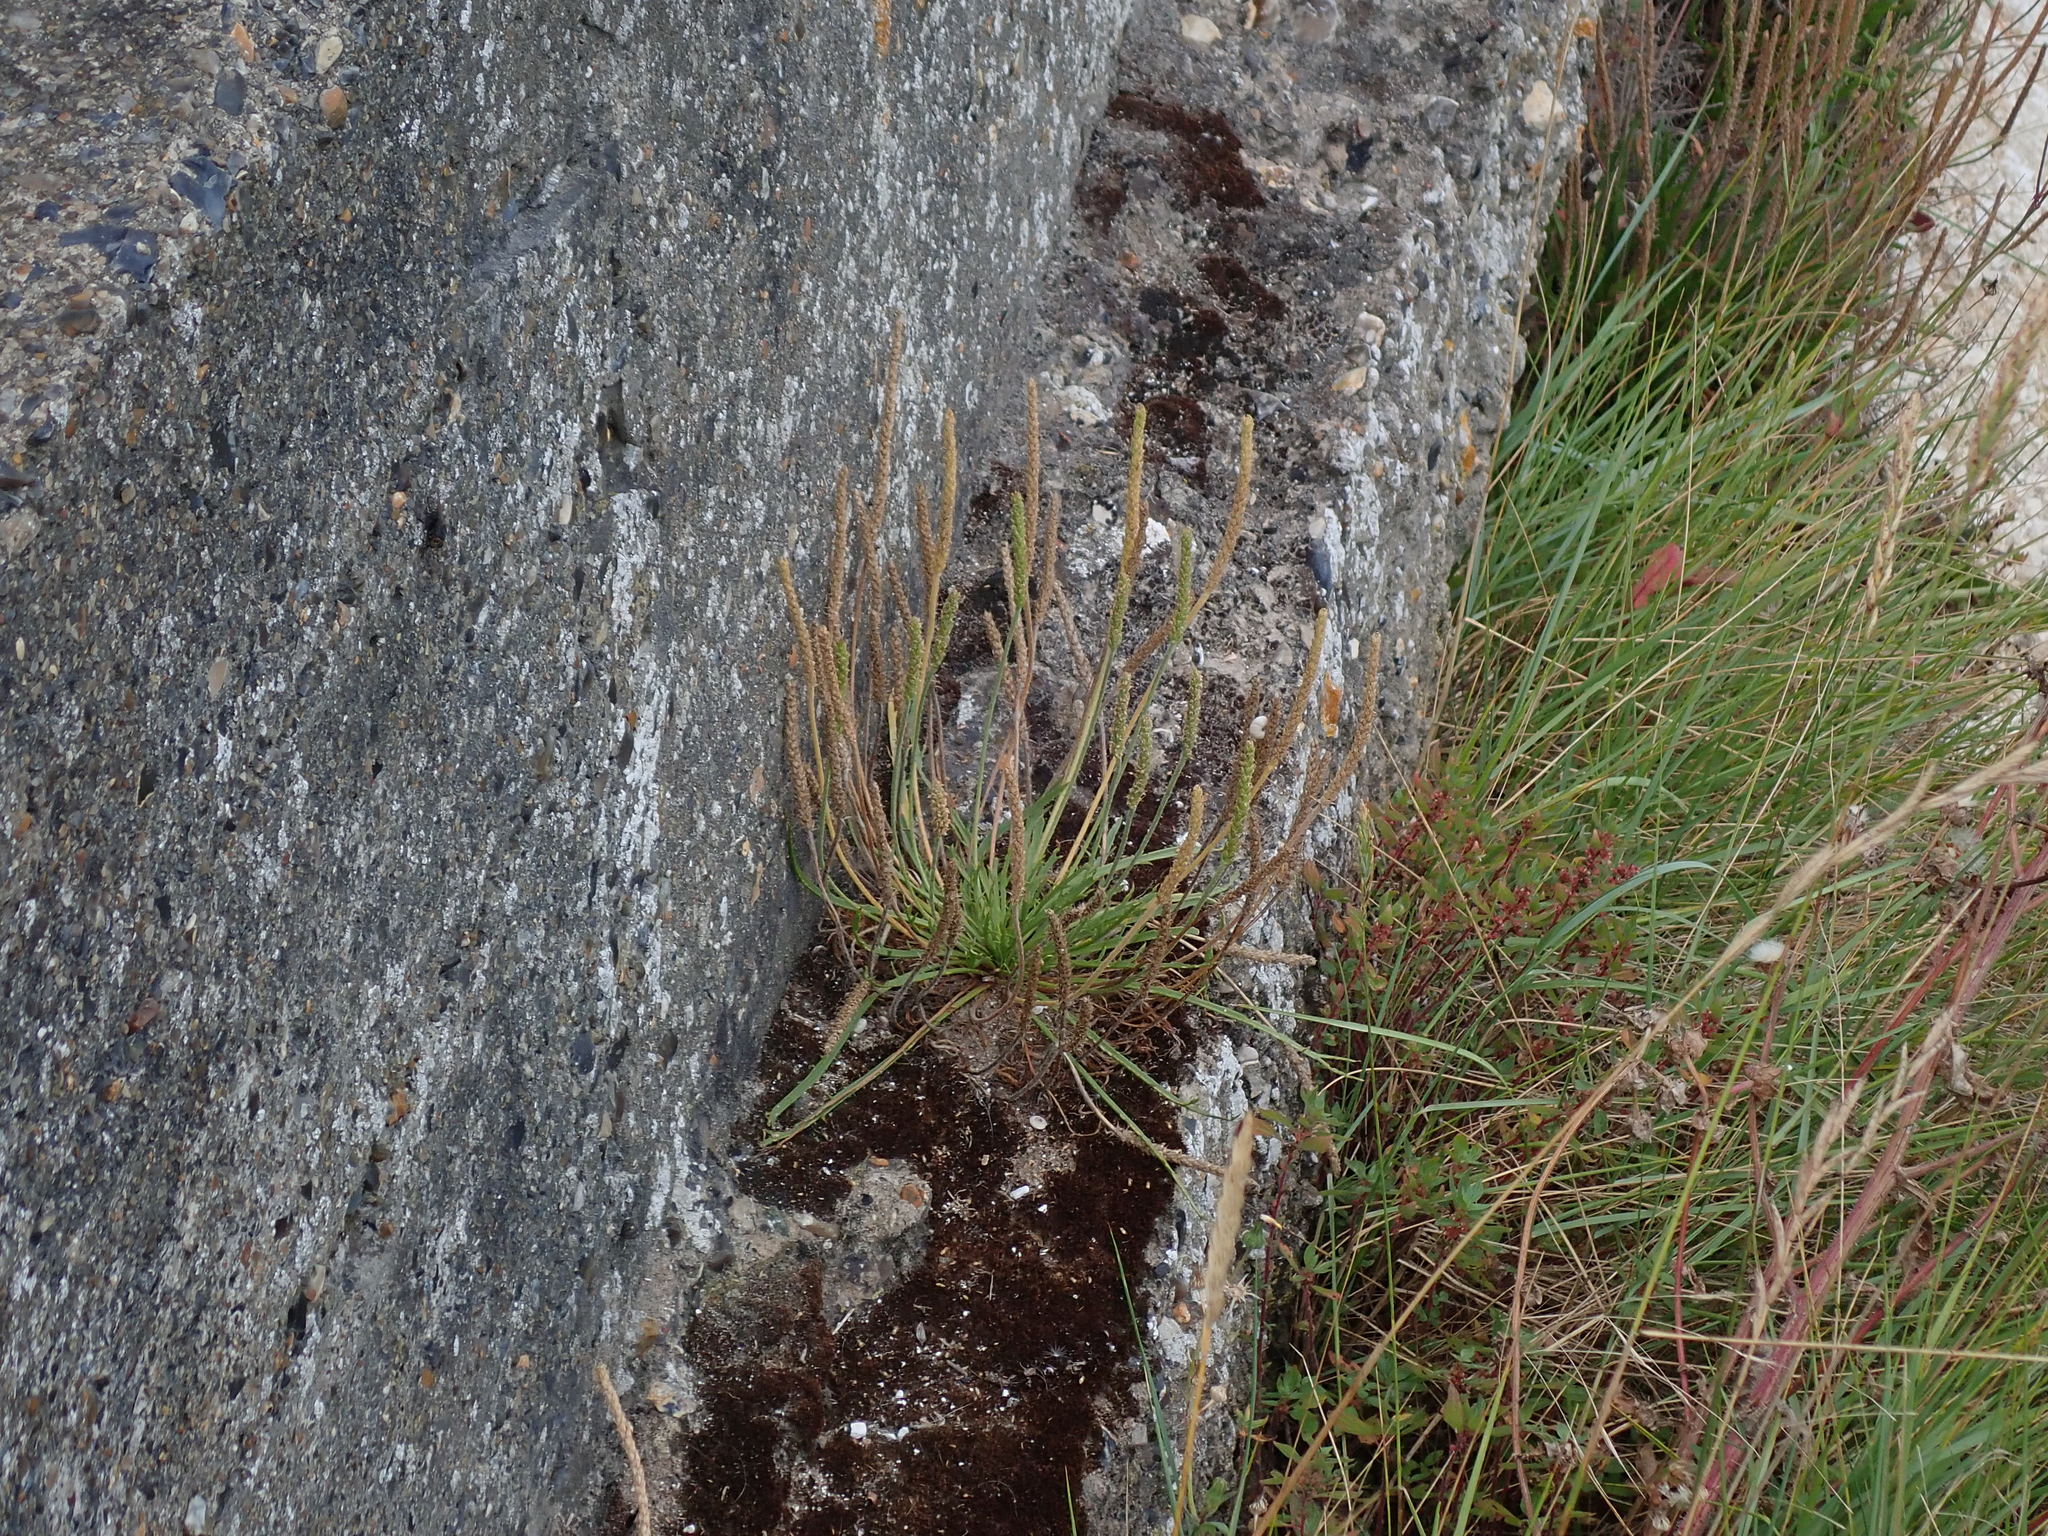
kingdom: Plantae
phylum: Tracheophyta
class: Magnoliopsida
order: Lamiales
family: Plantaginaceae
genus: Plantago
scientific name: Plantago maritima
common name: Sea plantain
